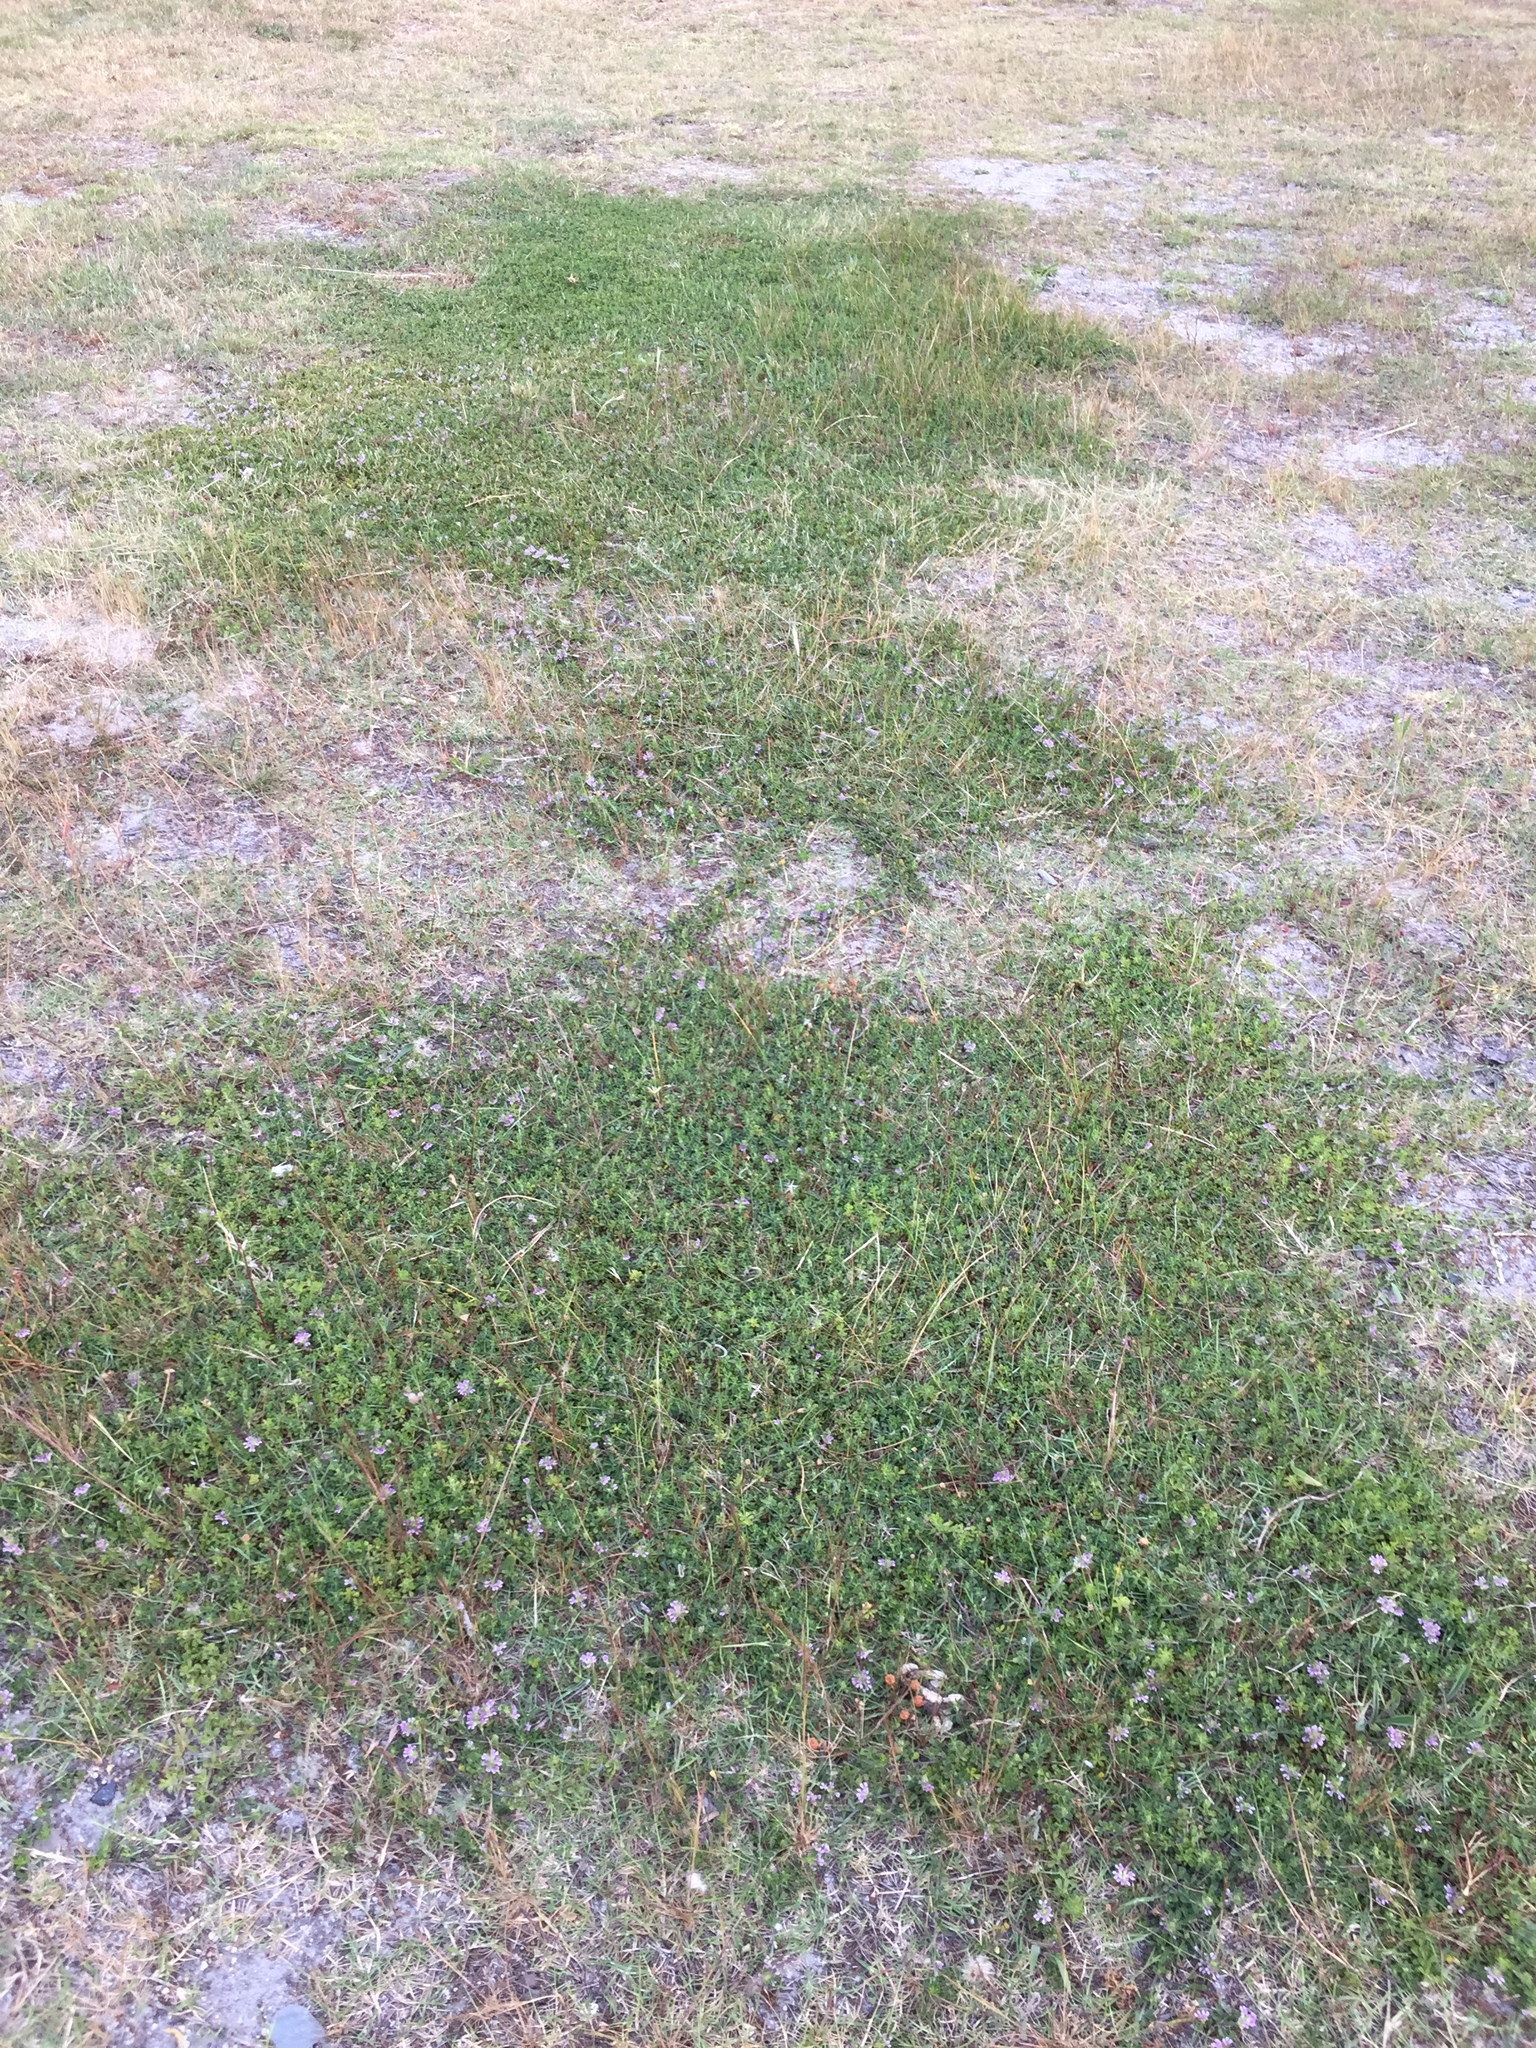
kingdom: Plantae
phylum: Tracheophyta
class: Magnoliopsida
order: Fabales
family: Fabaceae
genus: Psoralea
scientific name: Psoralea
